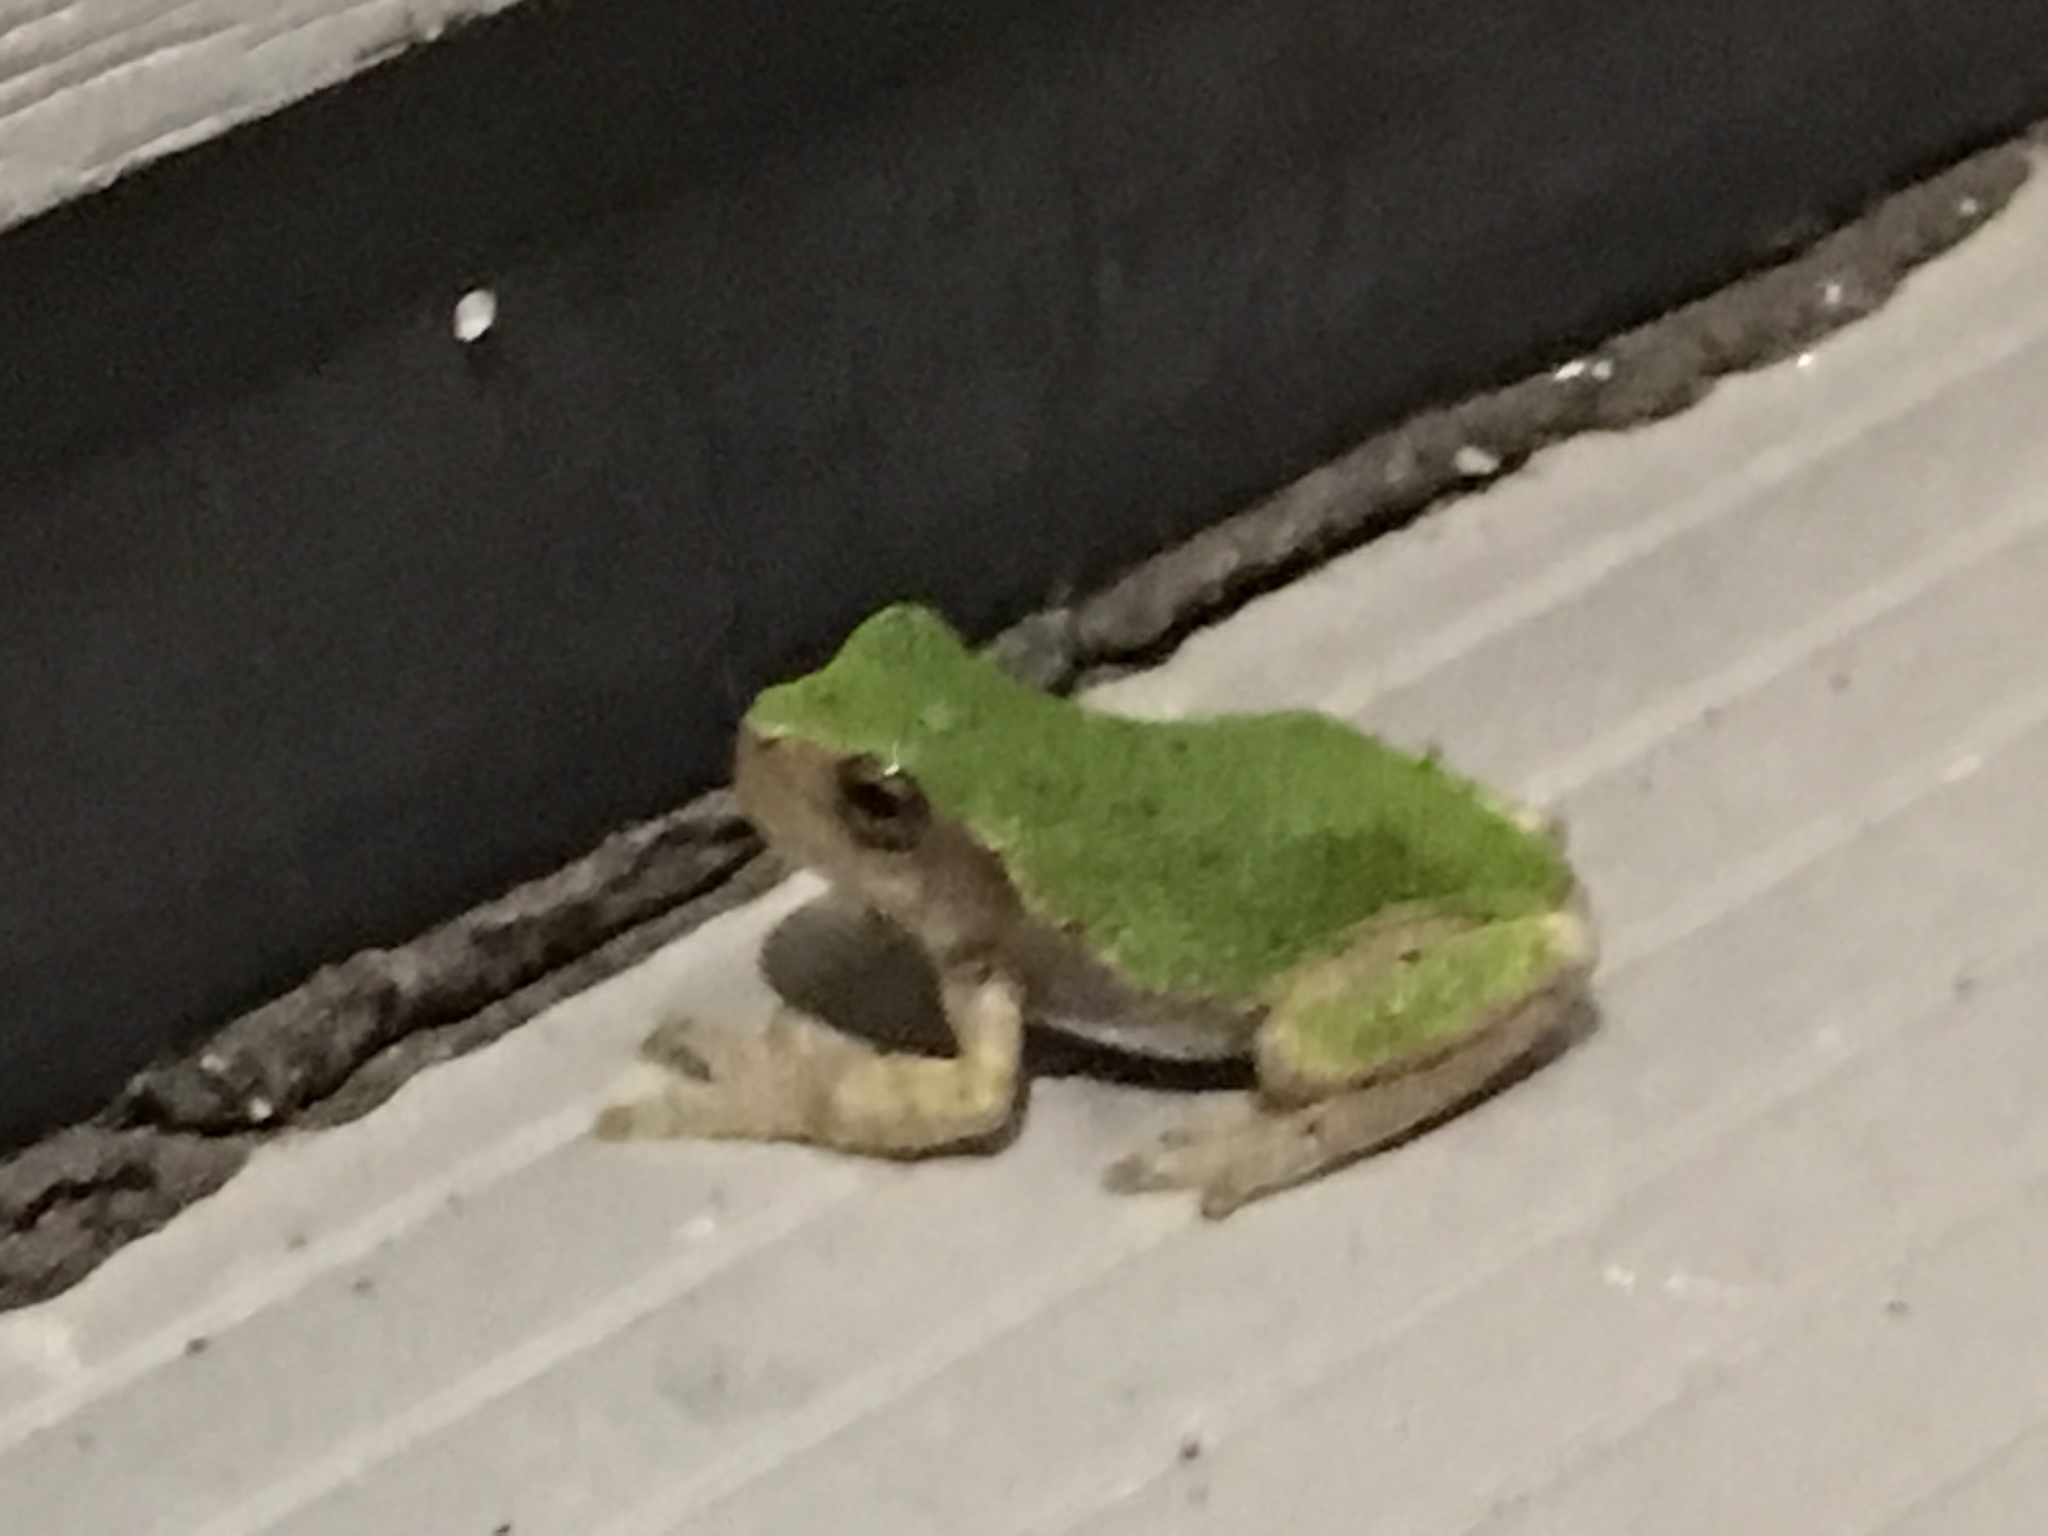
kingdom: Animalia
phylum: Chordata
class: Amphibia
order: Anura
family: Hylidae
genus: Dryophytes
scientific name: Dryophytes versicolor
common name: Gray treefrog
